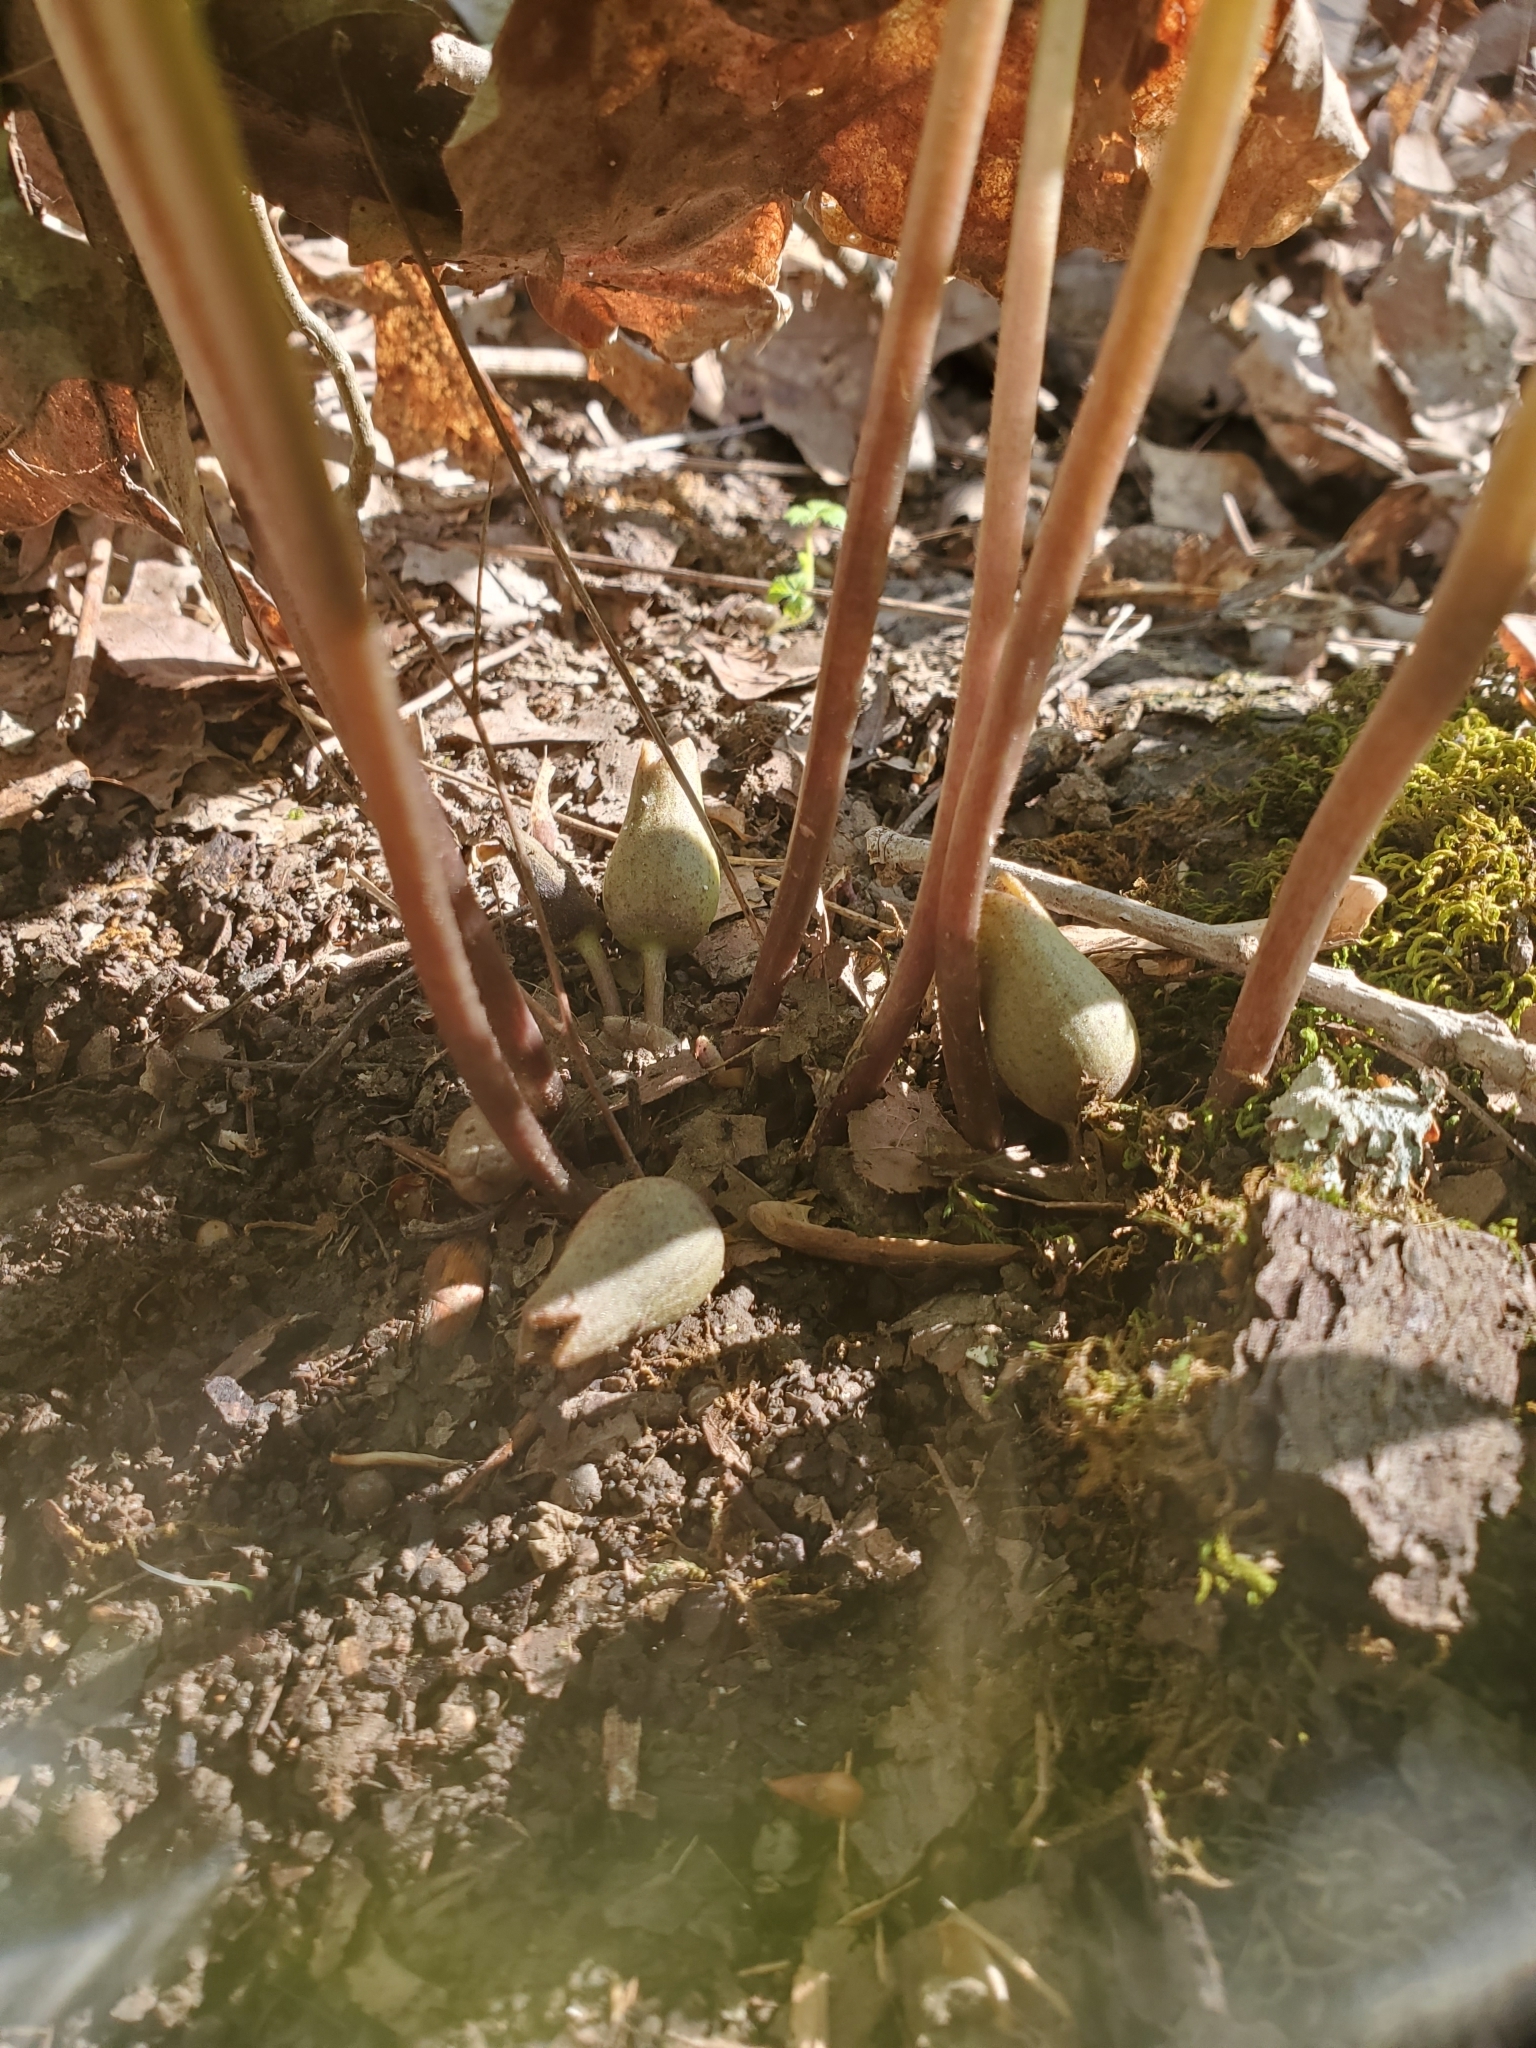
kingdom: Plantae
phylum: Tracheophyta
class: Magnoliopsida
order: Piperales
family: Aristolochiaceae
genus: Hexastylis
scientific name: Hexastylis arifolia
